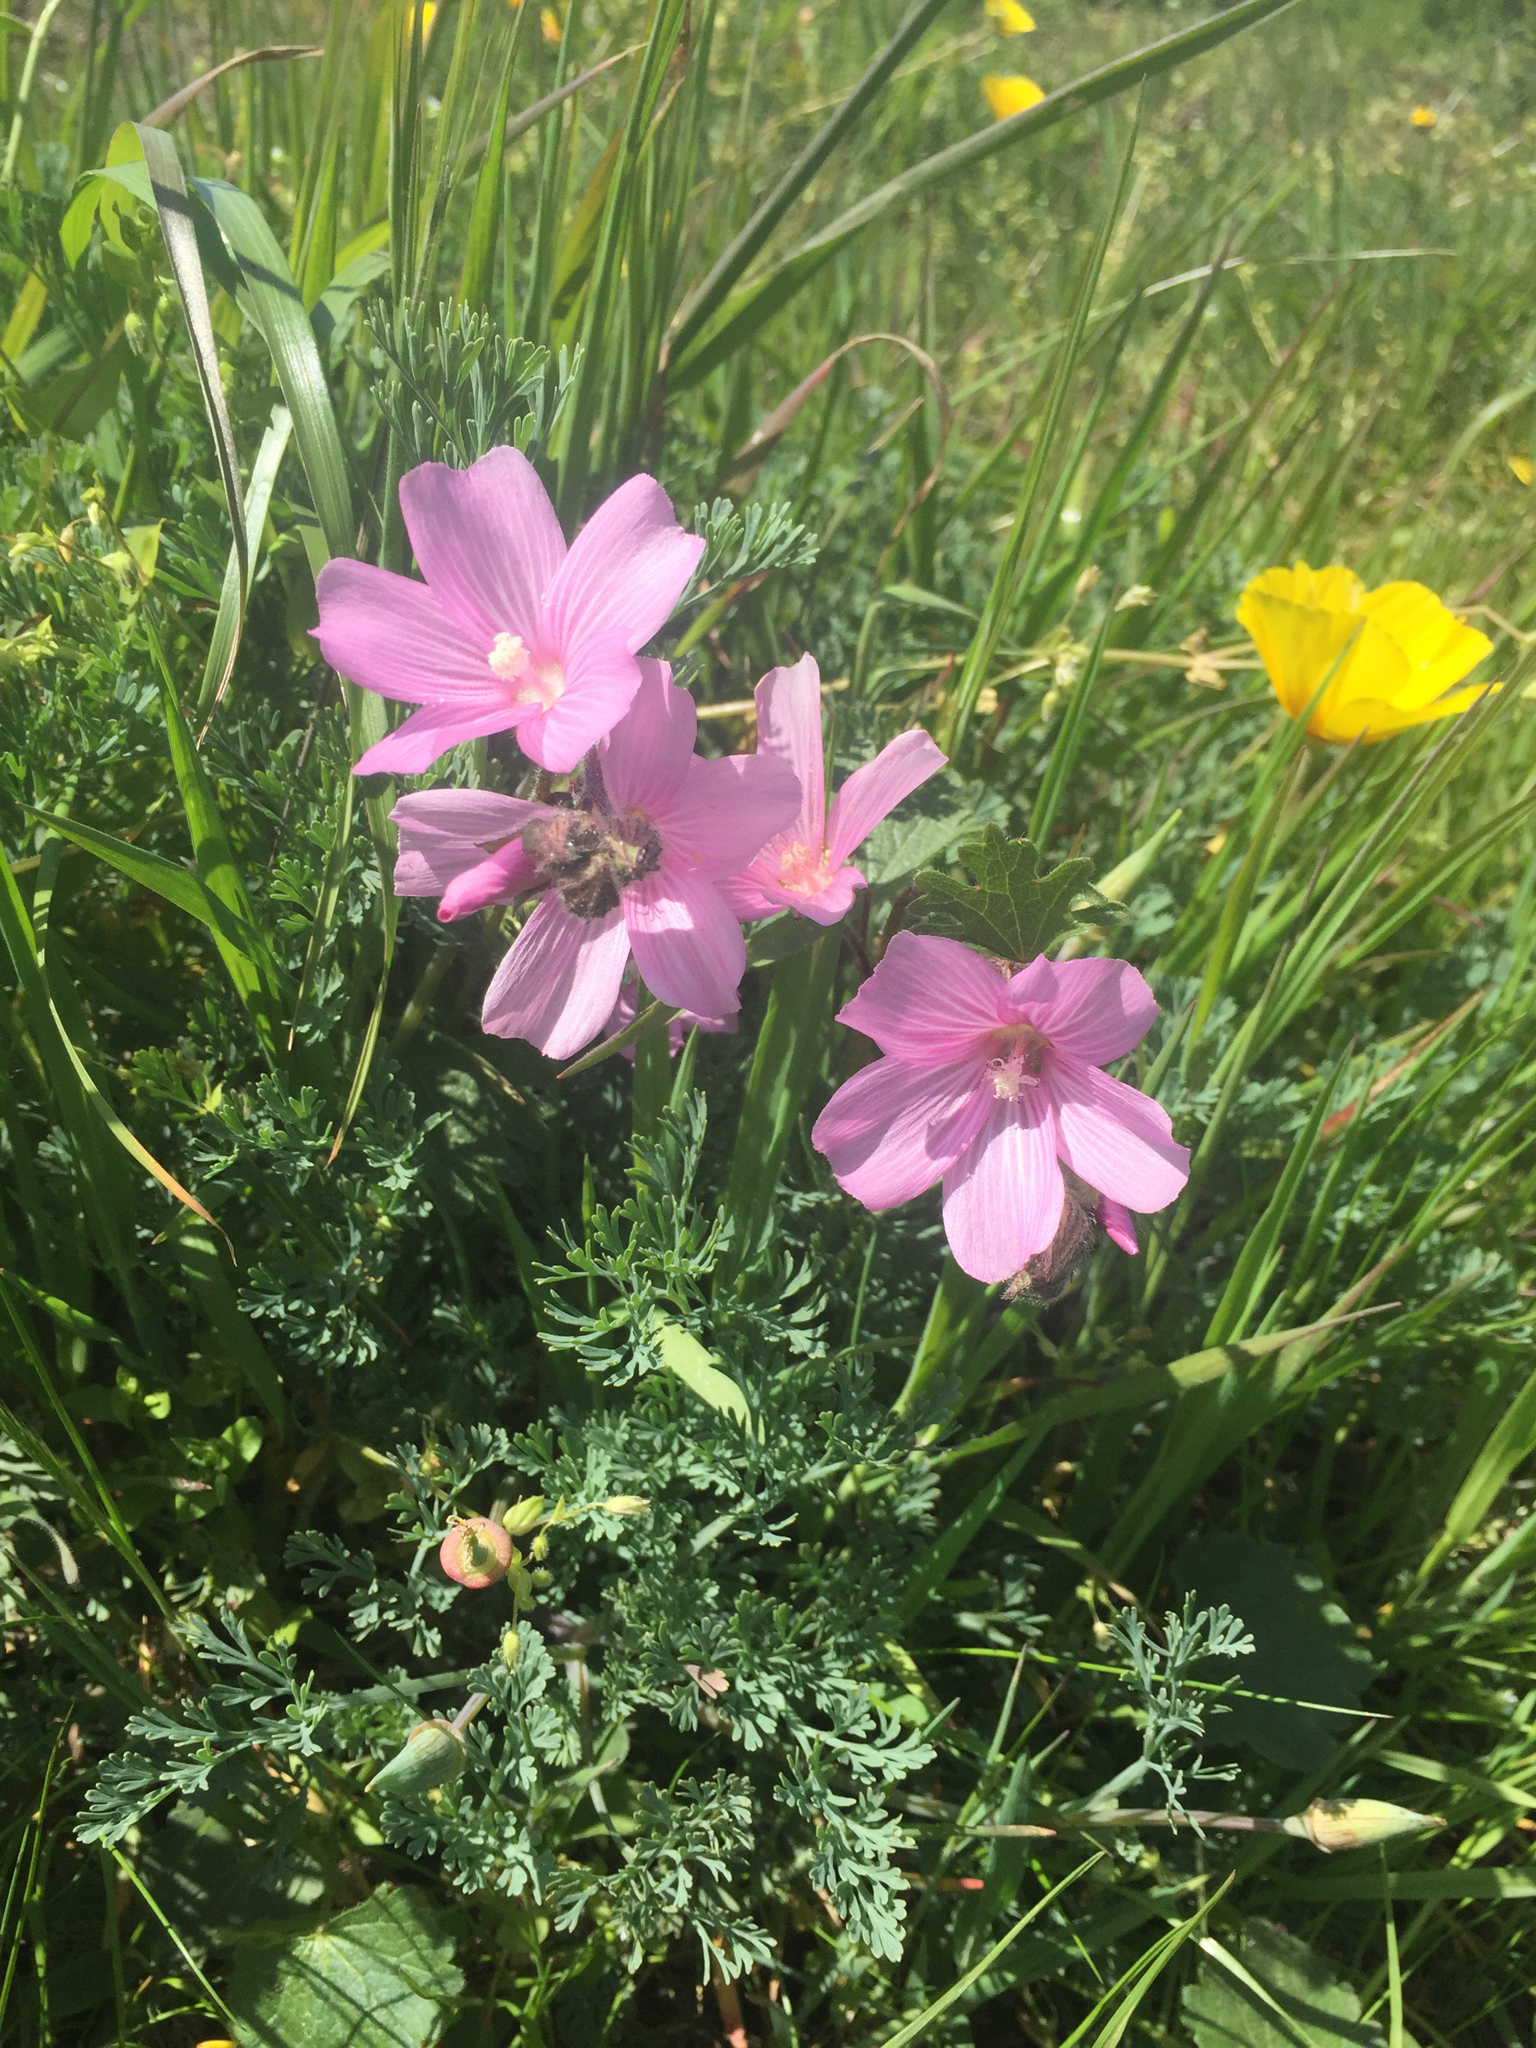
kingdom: Plantae
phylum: Tracheophyta
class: Magnoliopsida
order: Malvales
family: Malvaceae
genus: Sidalcea
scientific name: Sidalcea malviflora
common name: Greek mallow
